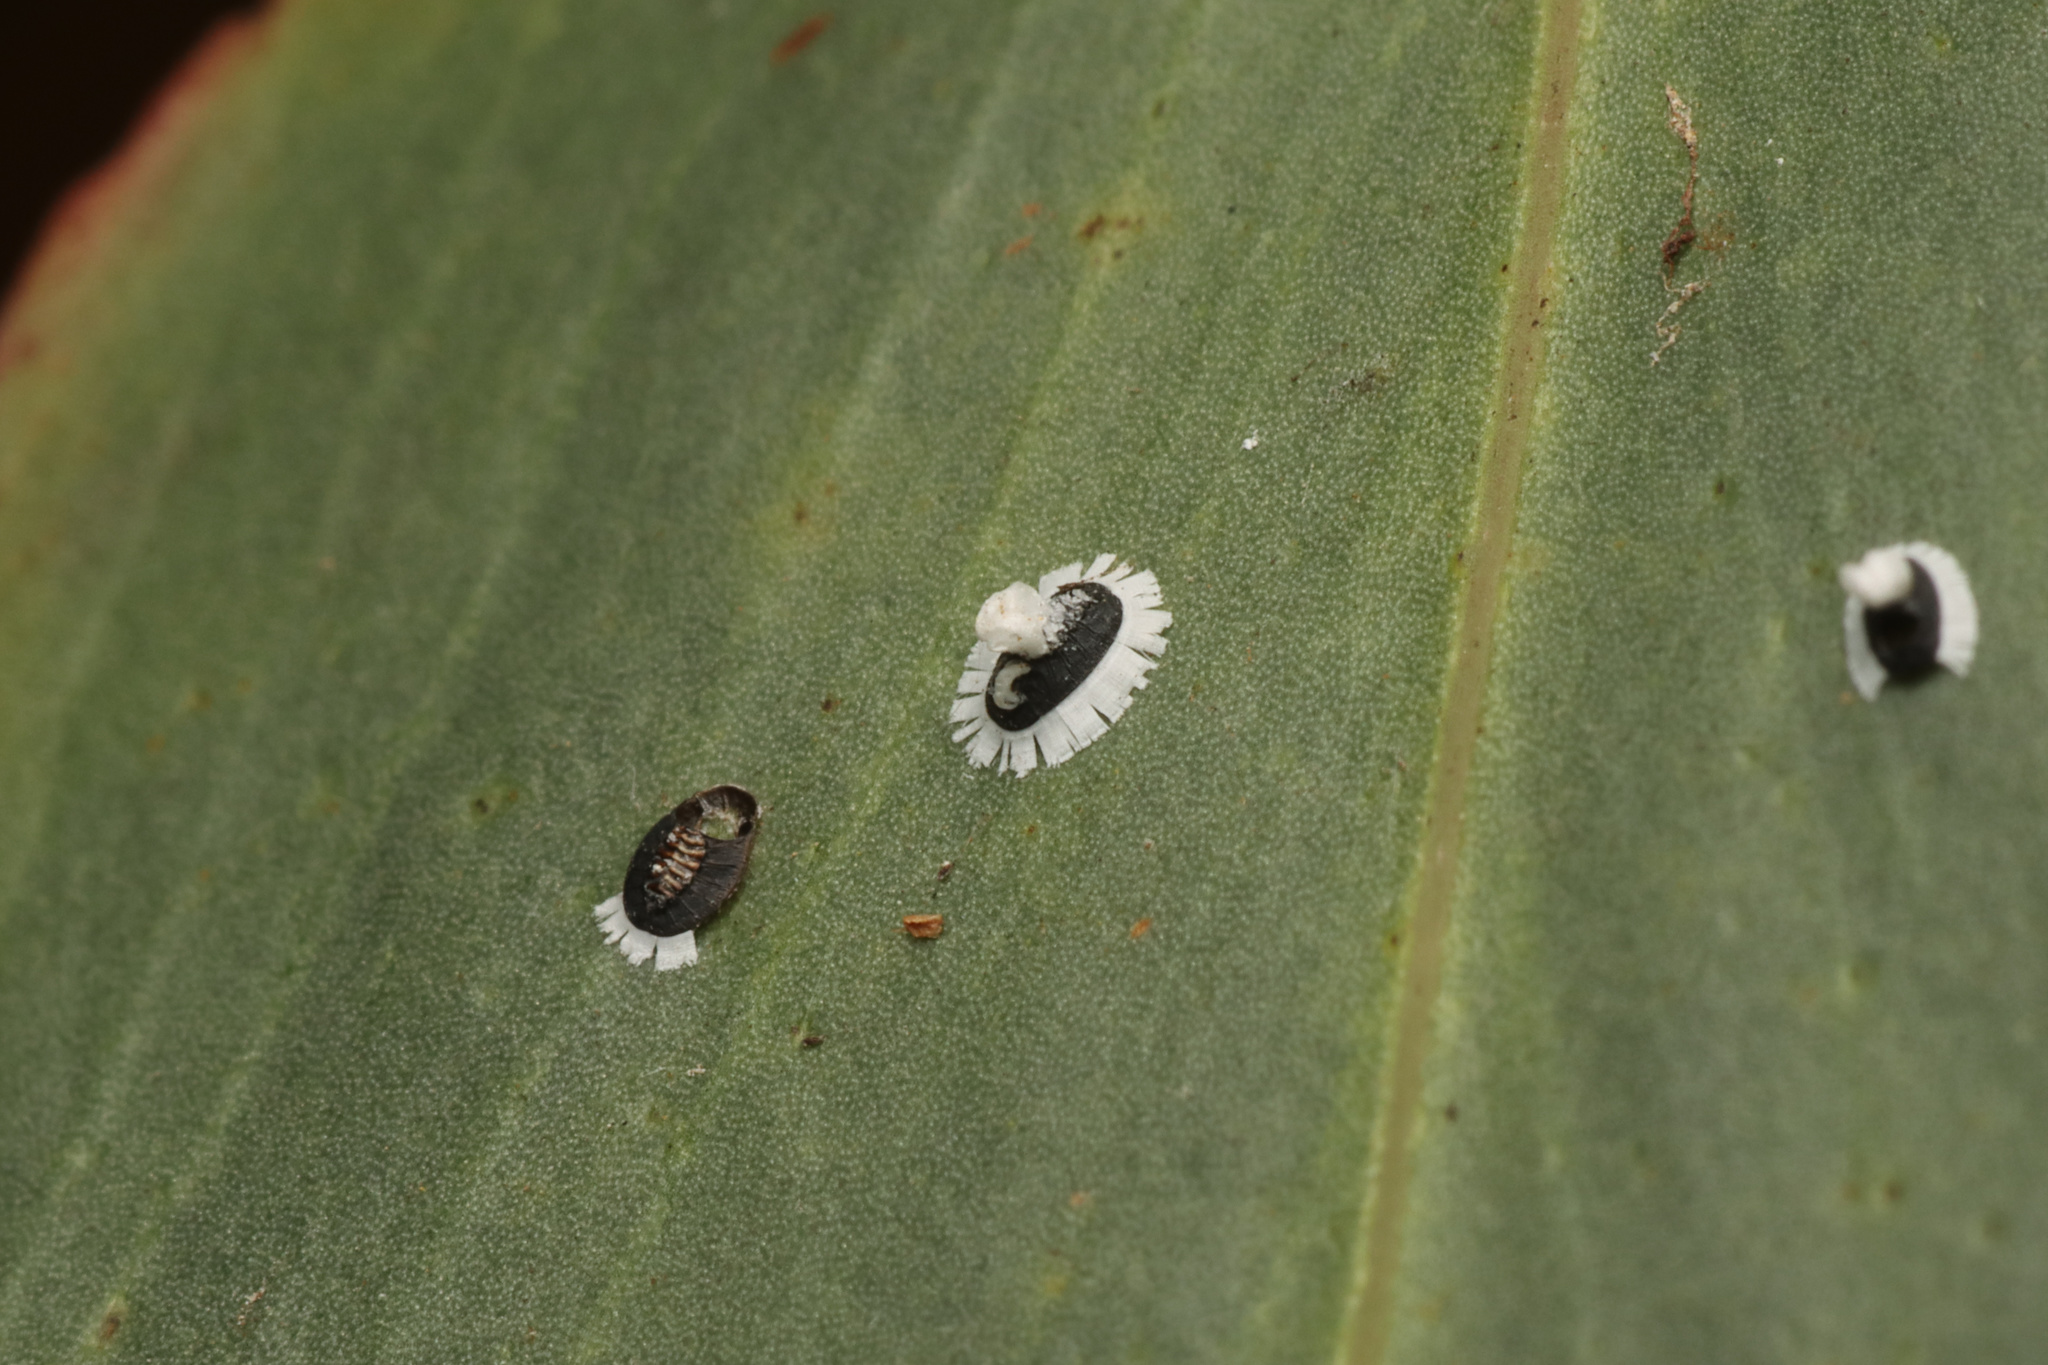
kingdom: Animalia
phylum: Arthropoda
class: Insecta
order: Hemiptera
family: Aleyrodidae
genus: Pseudozaphanera
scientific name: Pseudozaphanera wariensis
